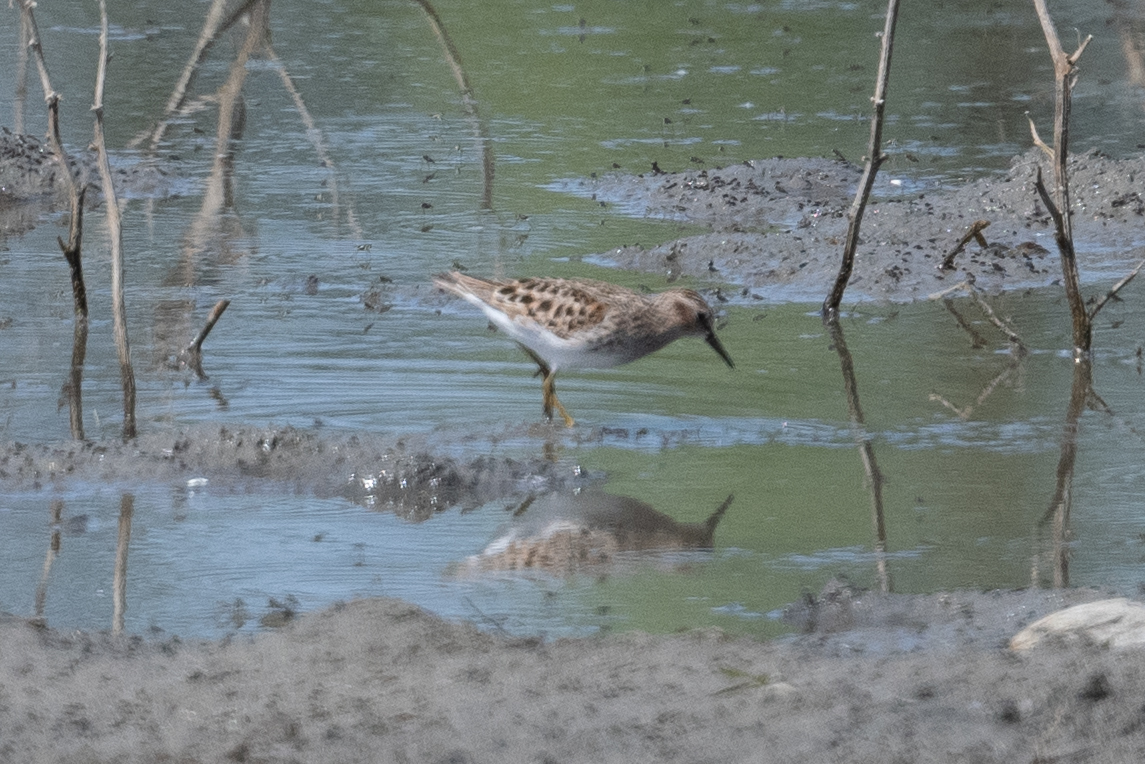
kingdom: Animalia
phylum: Chordata
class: Aves
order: Charadriiformes
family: Scolopacidae
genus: Calidris
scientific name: Calidris minutilla
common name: Least sandpiper
